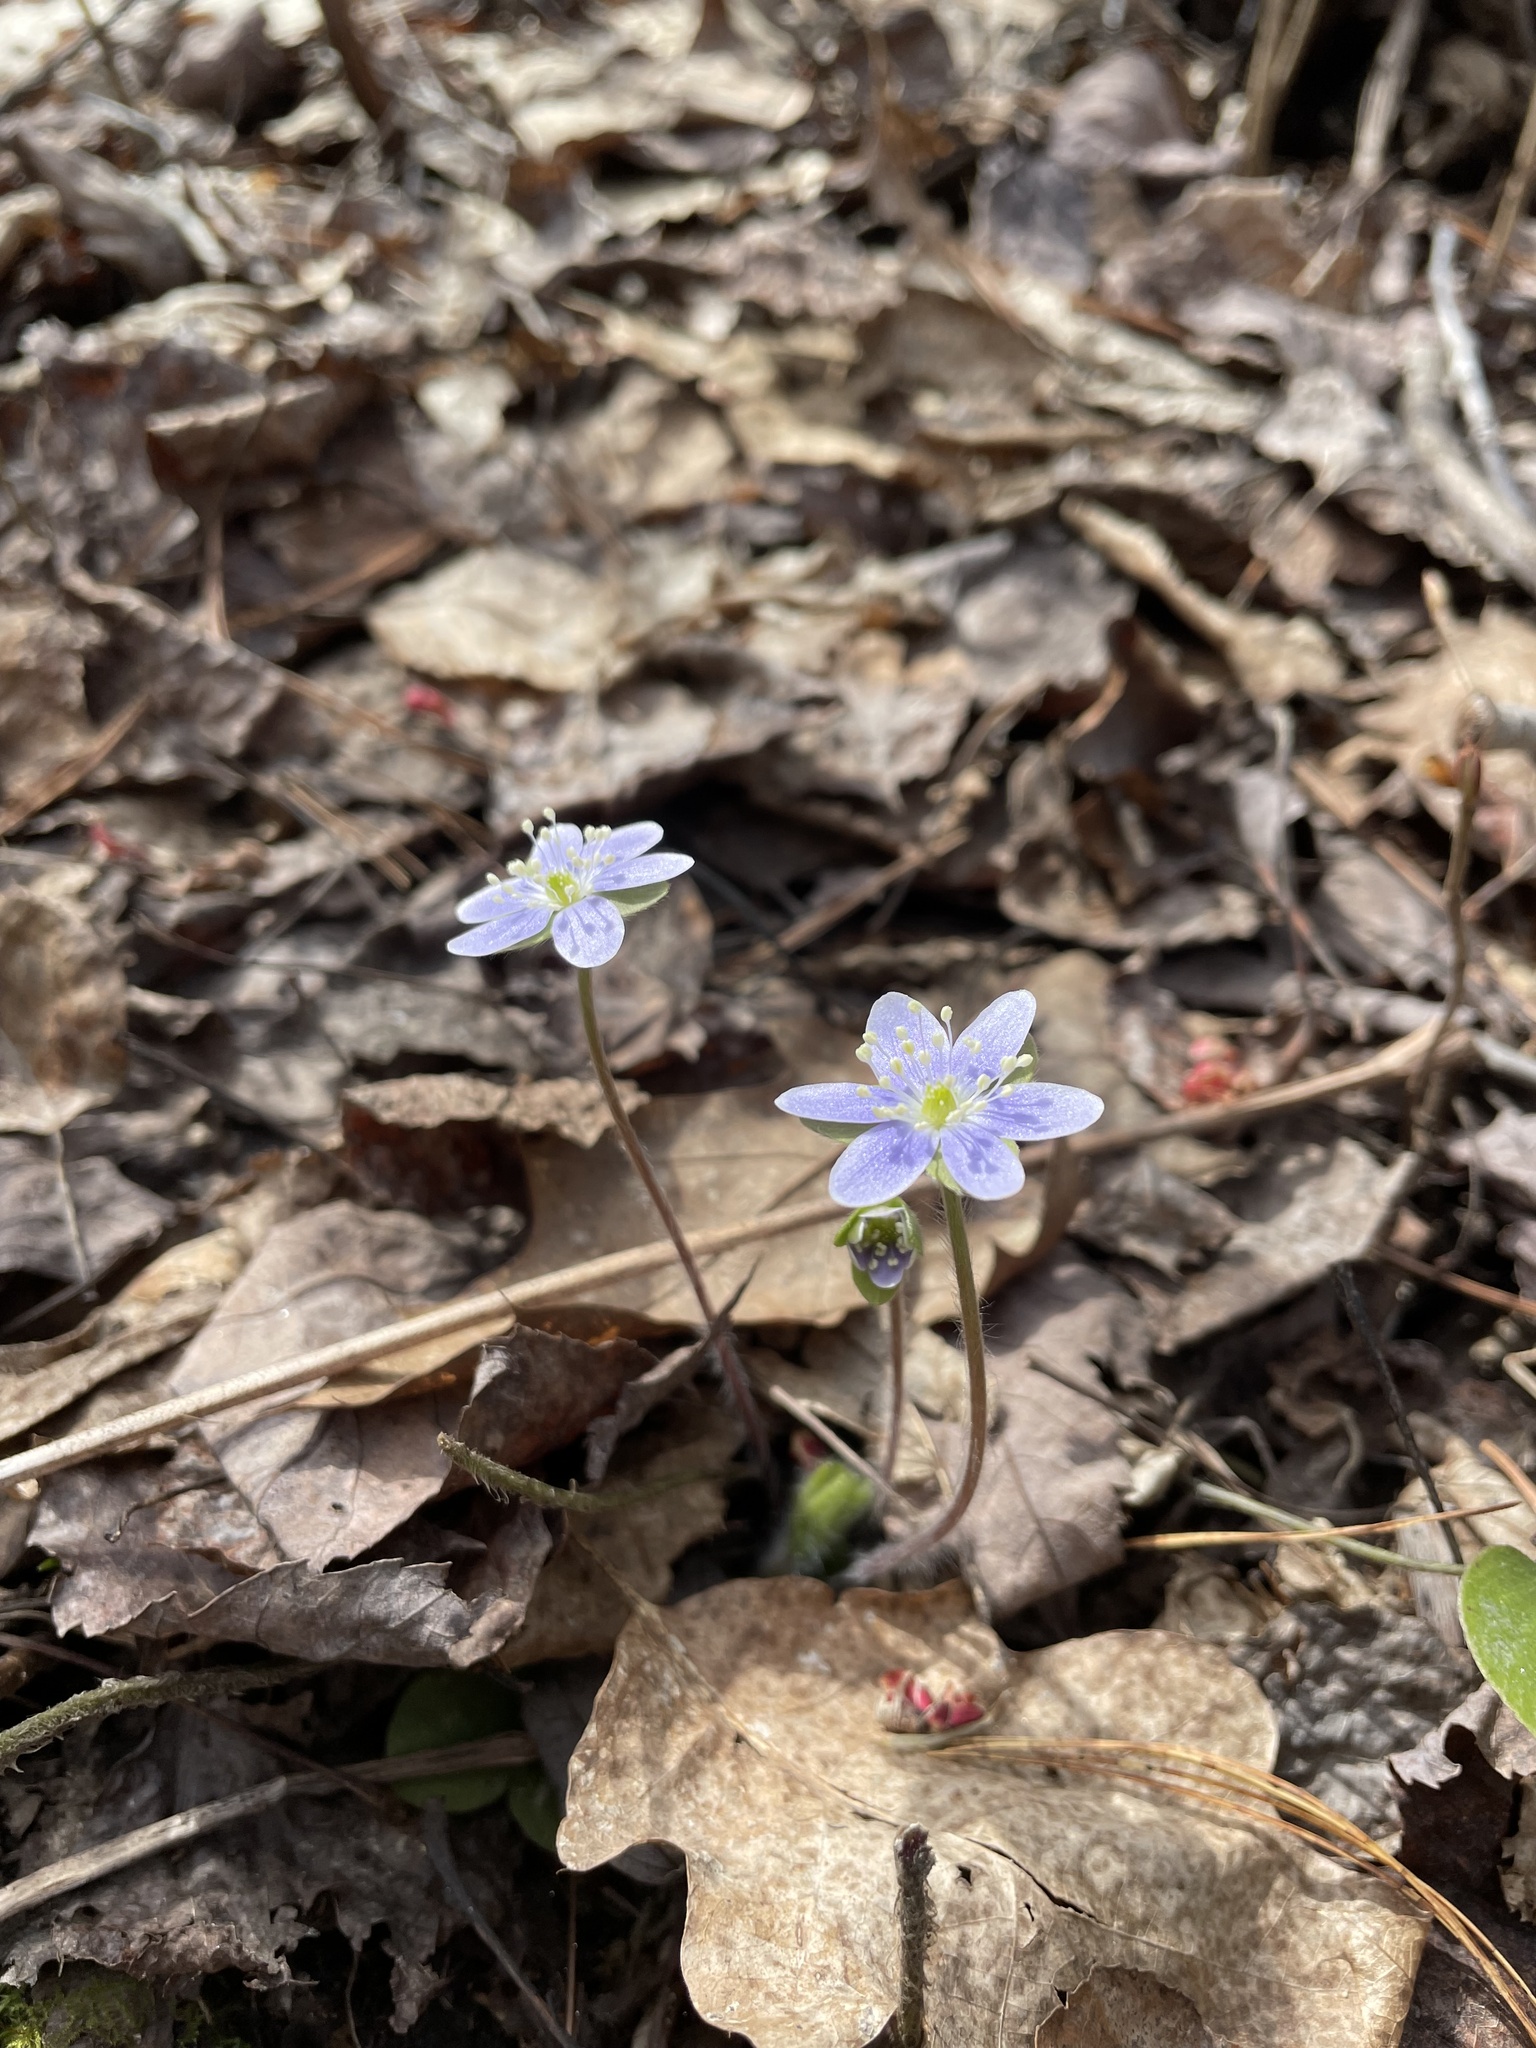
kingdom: Plantae
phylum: Tracheophyta
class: Magnoliopsida
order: Ranunculales
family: Ranunculaceae
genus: Hepatica
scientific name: Hepatica americana
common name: American hepatica
